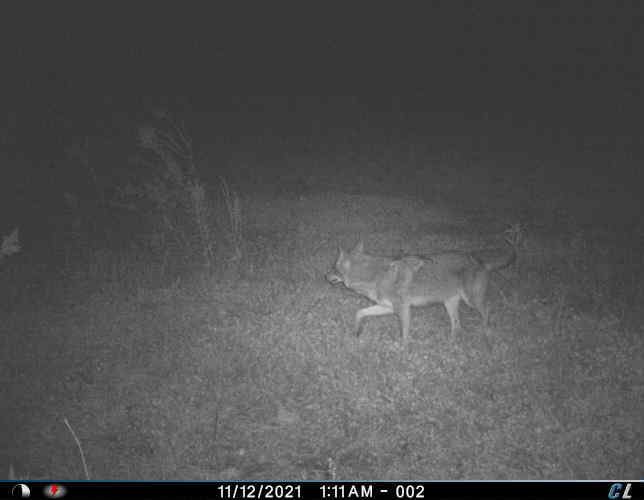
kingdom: Animalia
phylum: Chordata
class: Mammalia
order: Carnivora
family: Canidae
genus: Canis
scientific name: Canis latrans
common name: Coyote
